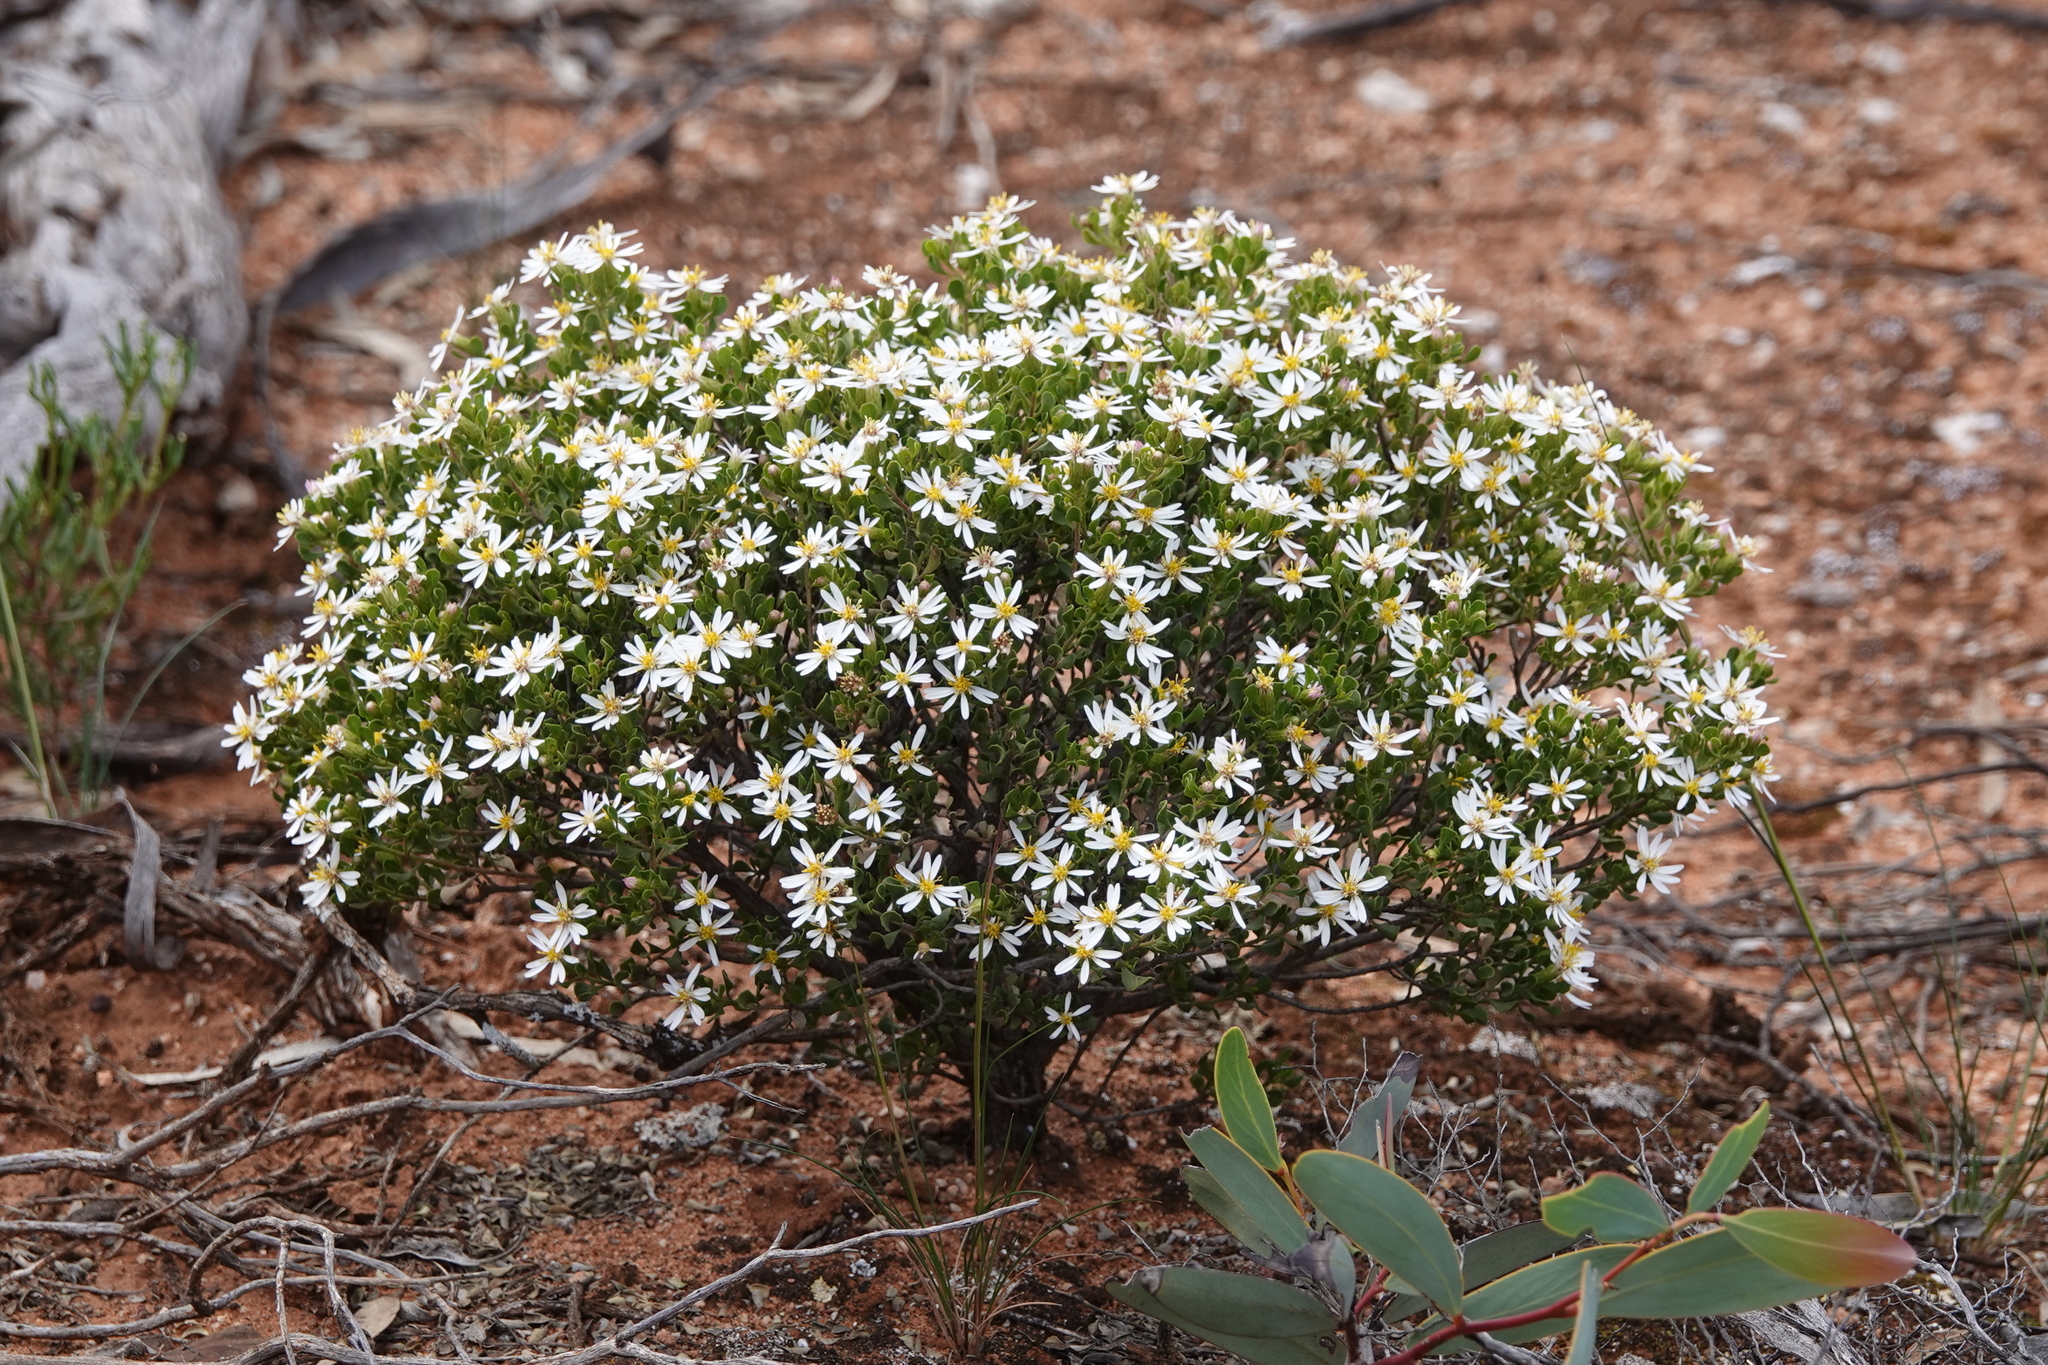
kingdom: Plantae
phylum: Tracheophyta
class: Magnoliopsida
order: Asterales
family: Asteraceae
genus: Walsholaria
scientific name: Walsholaria muelleri
